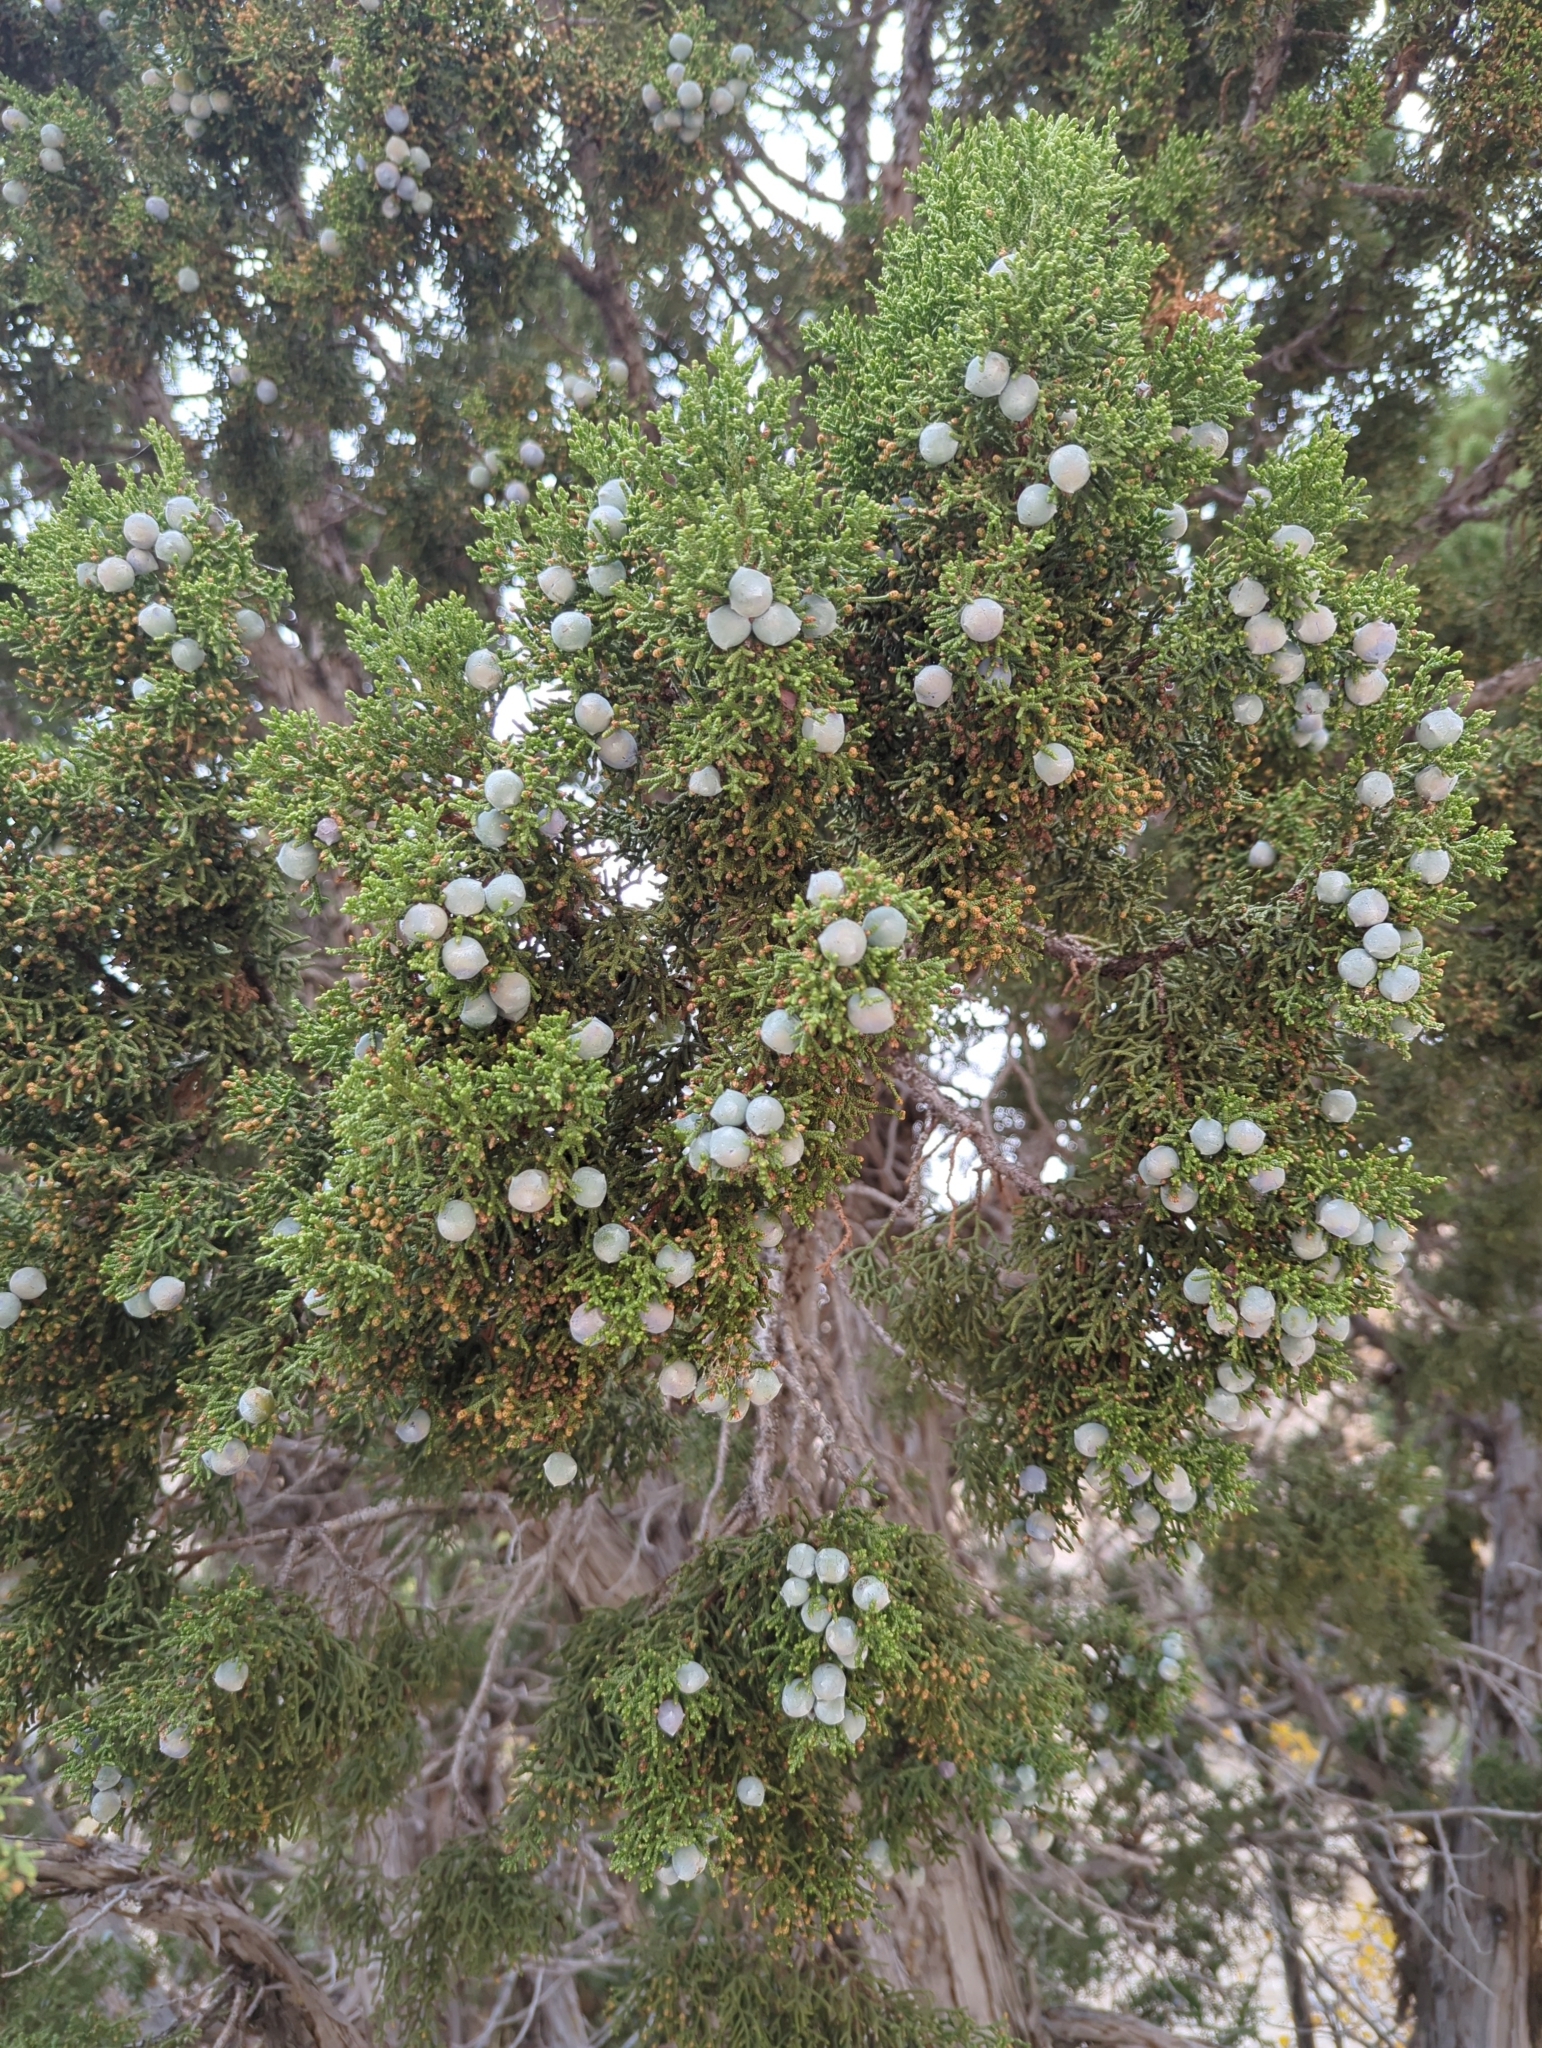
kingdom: Plantae
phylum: Tracheophyta
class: Pinopsida
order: Pinales
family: Cupressaceae
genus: Juniperus
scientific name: Juniperus osteosperma
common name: Utah juniper
